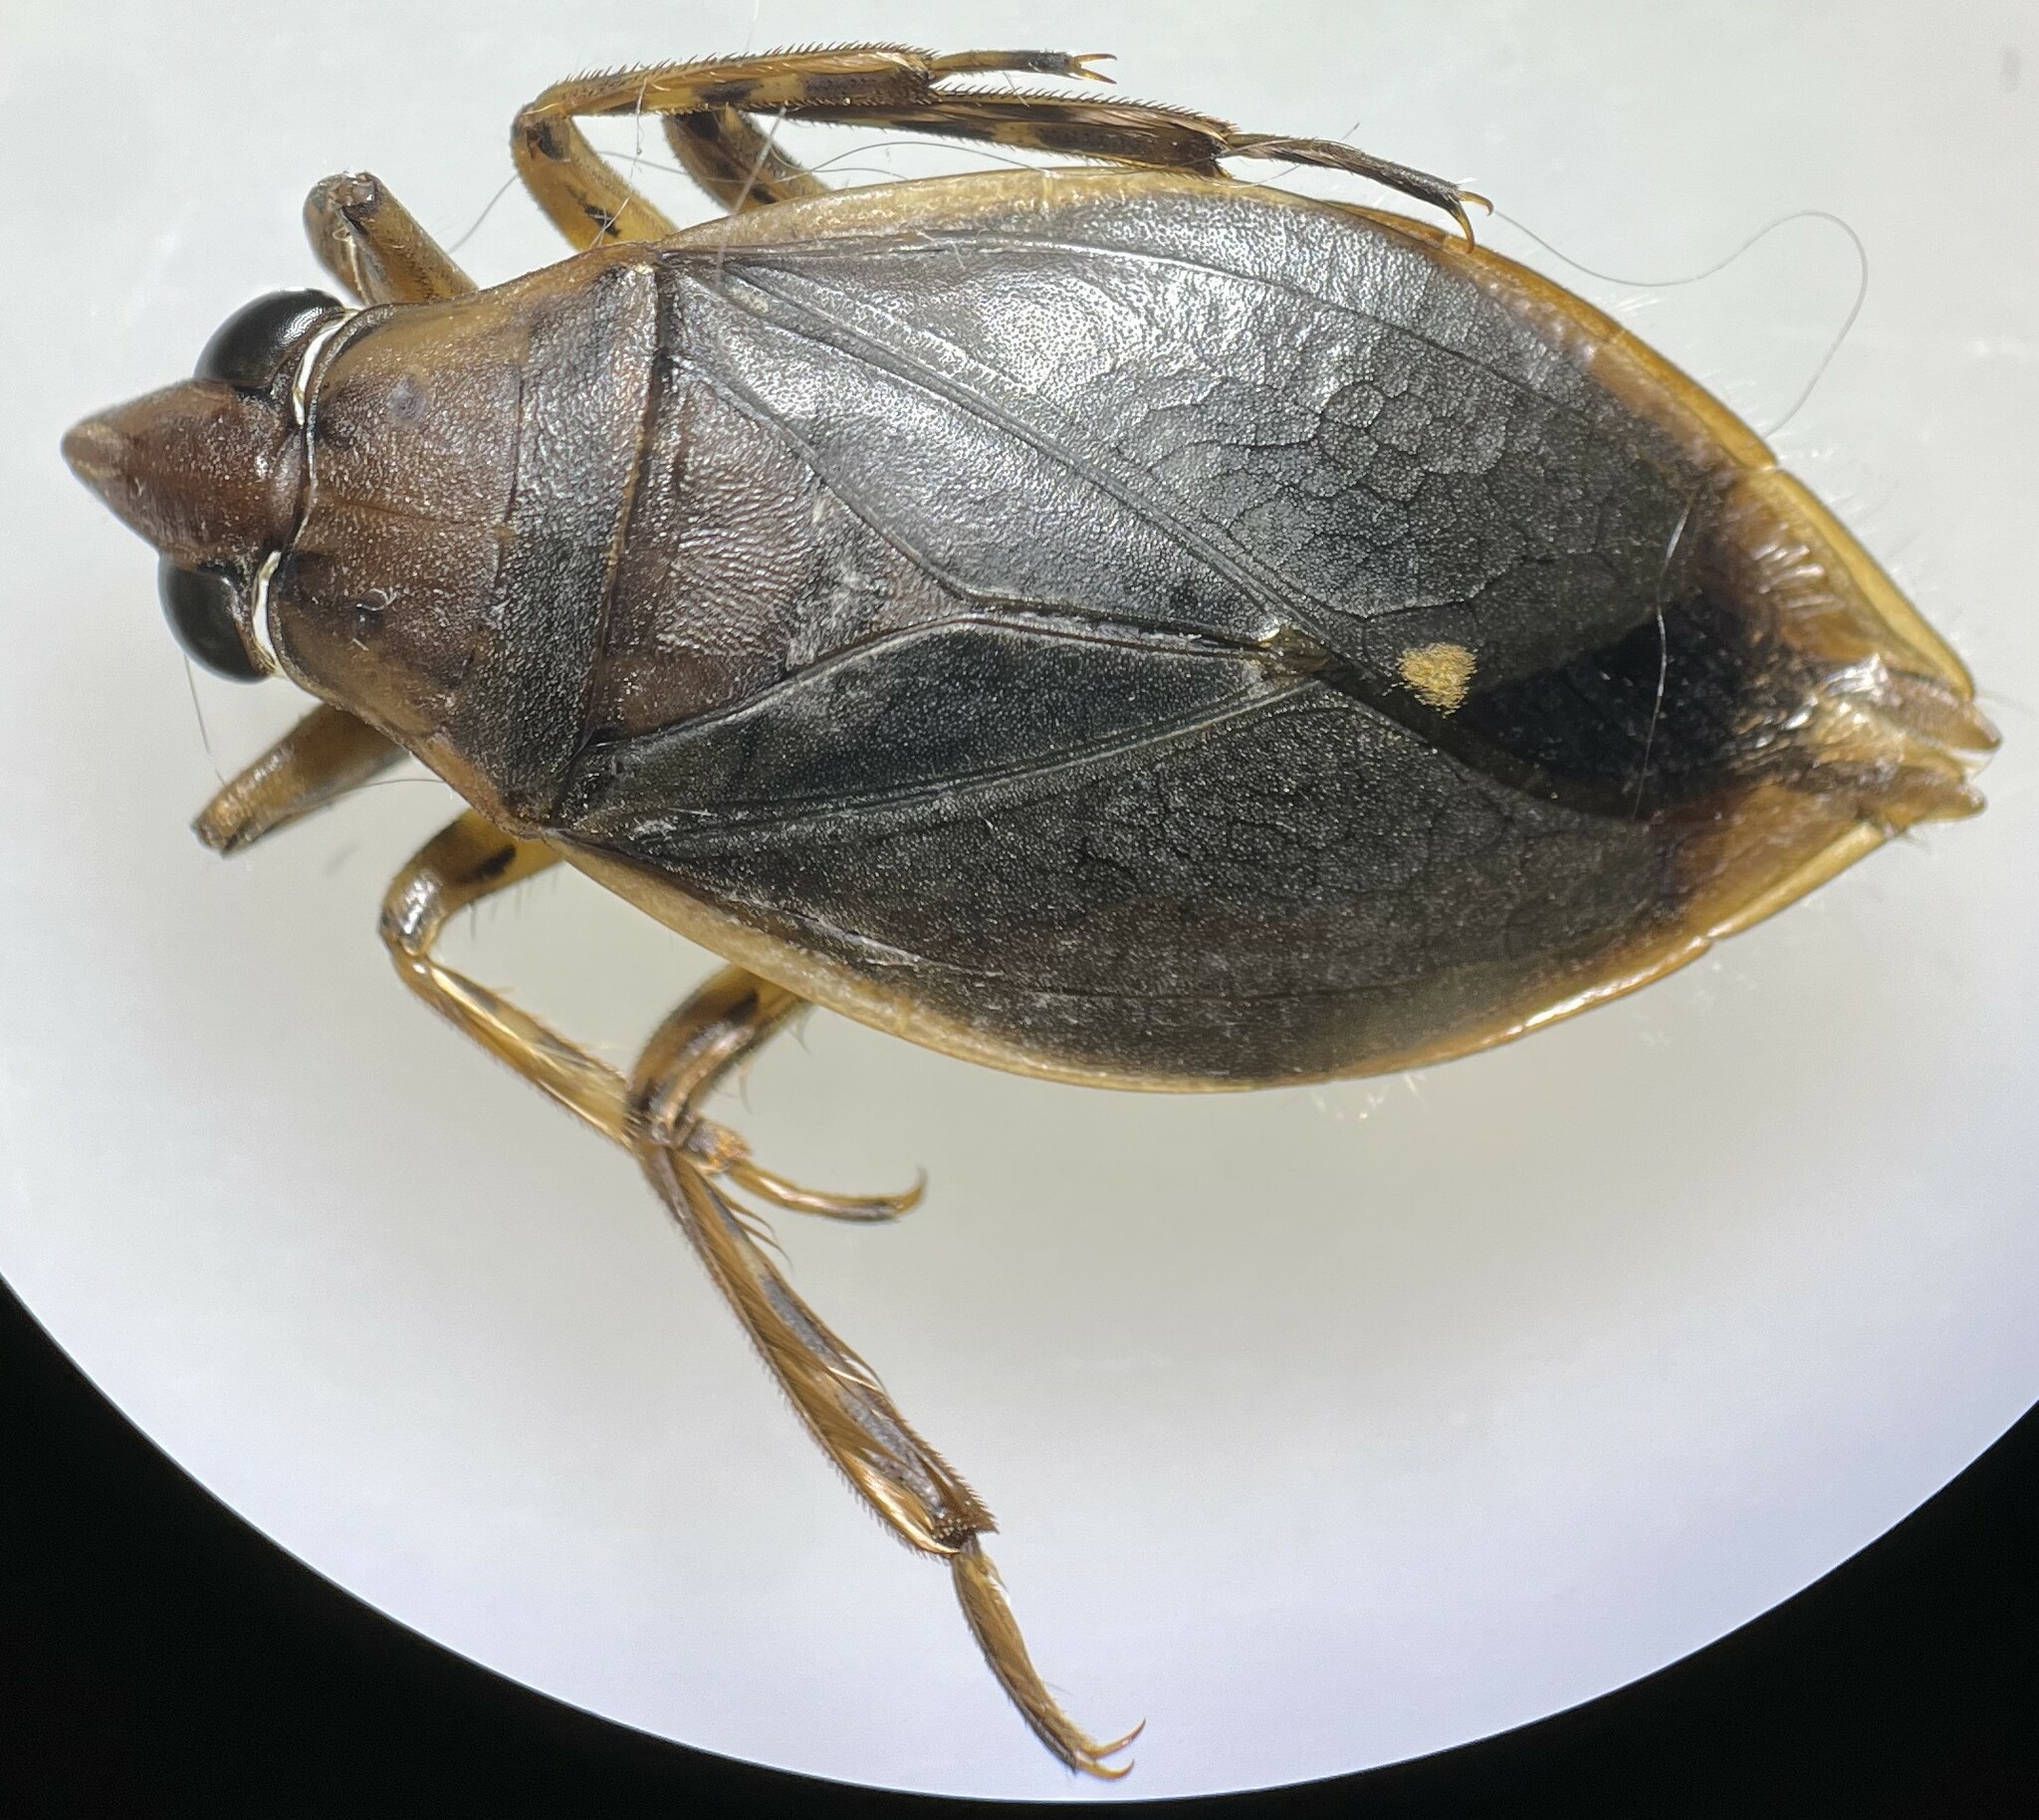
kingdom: Animalia
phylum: Arthropoda
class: Insecta
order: Hemiptera
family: Belostomatidae
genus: Belostoma
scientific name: Belostoma lutarium
